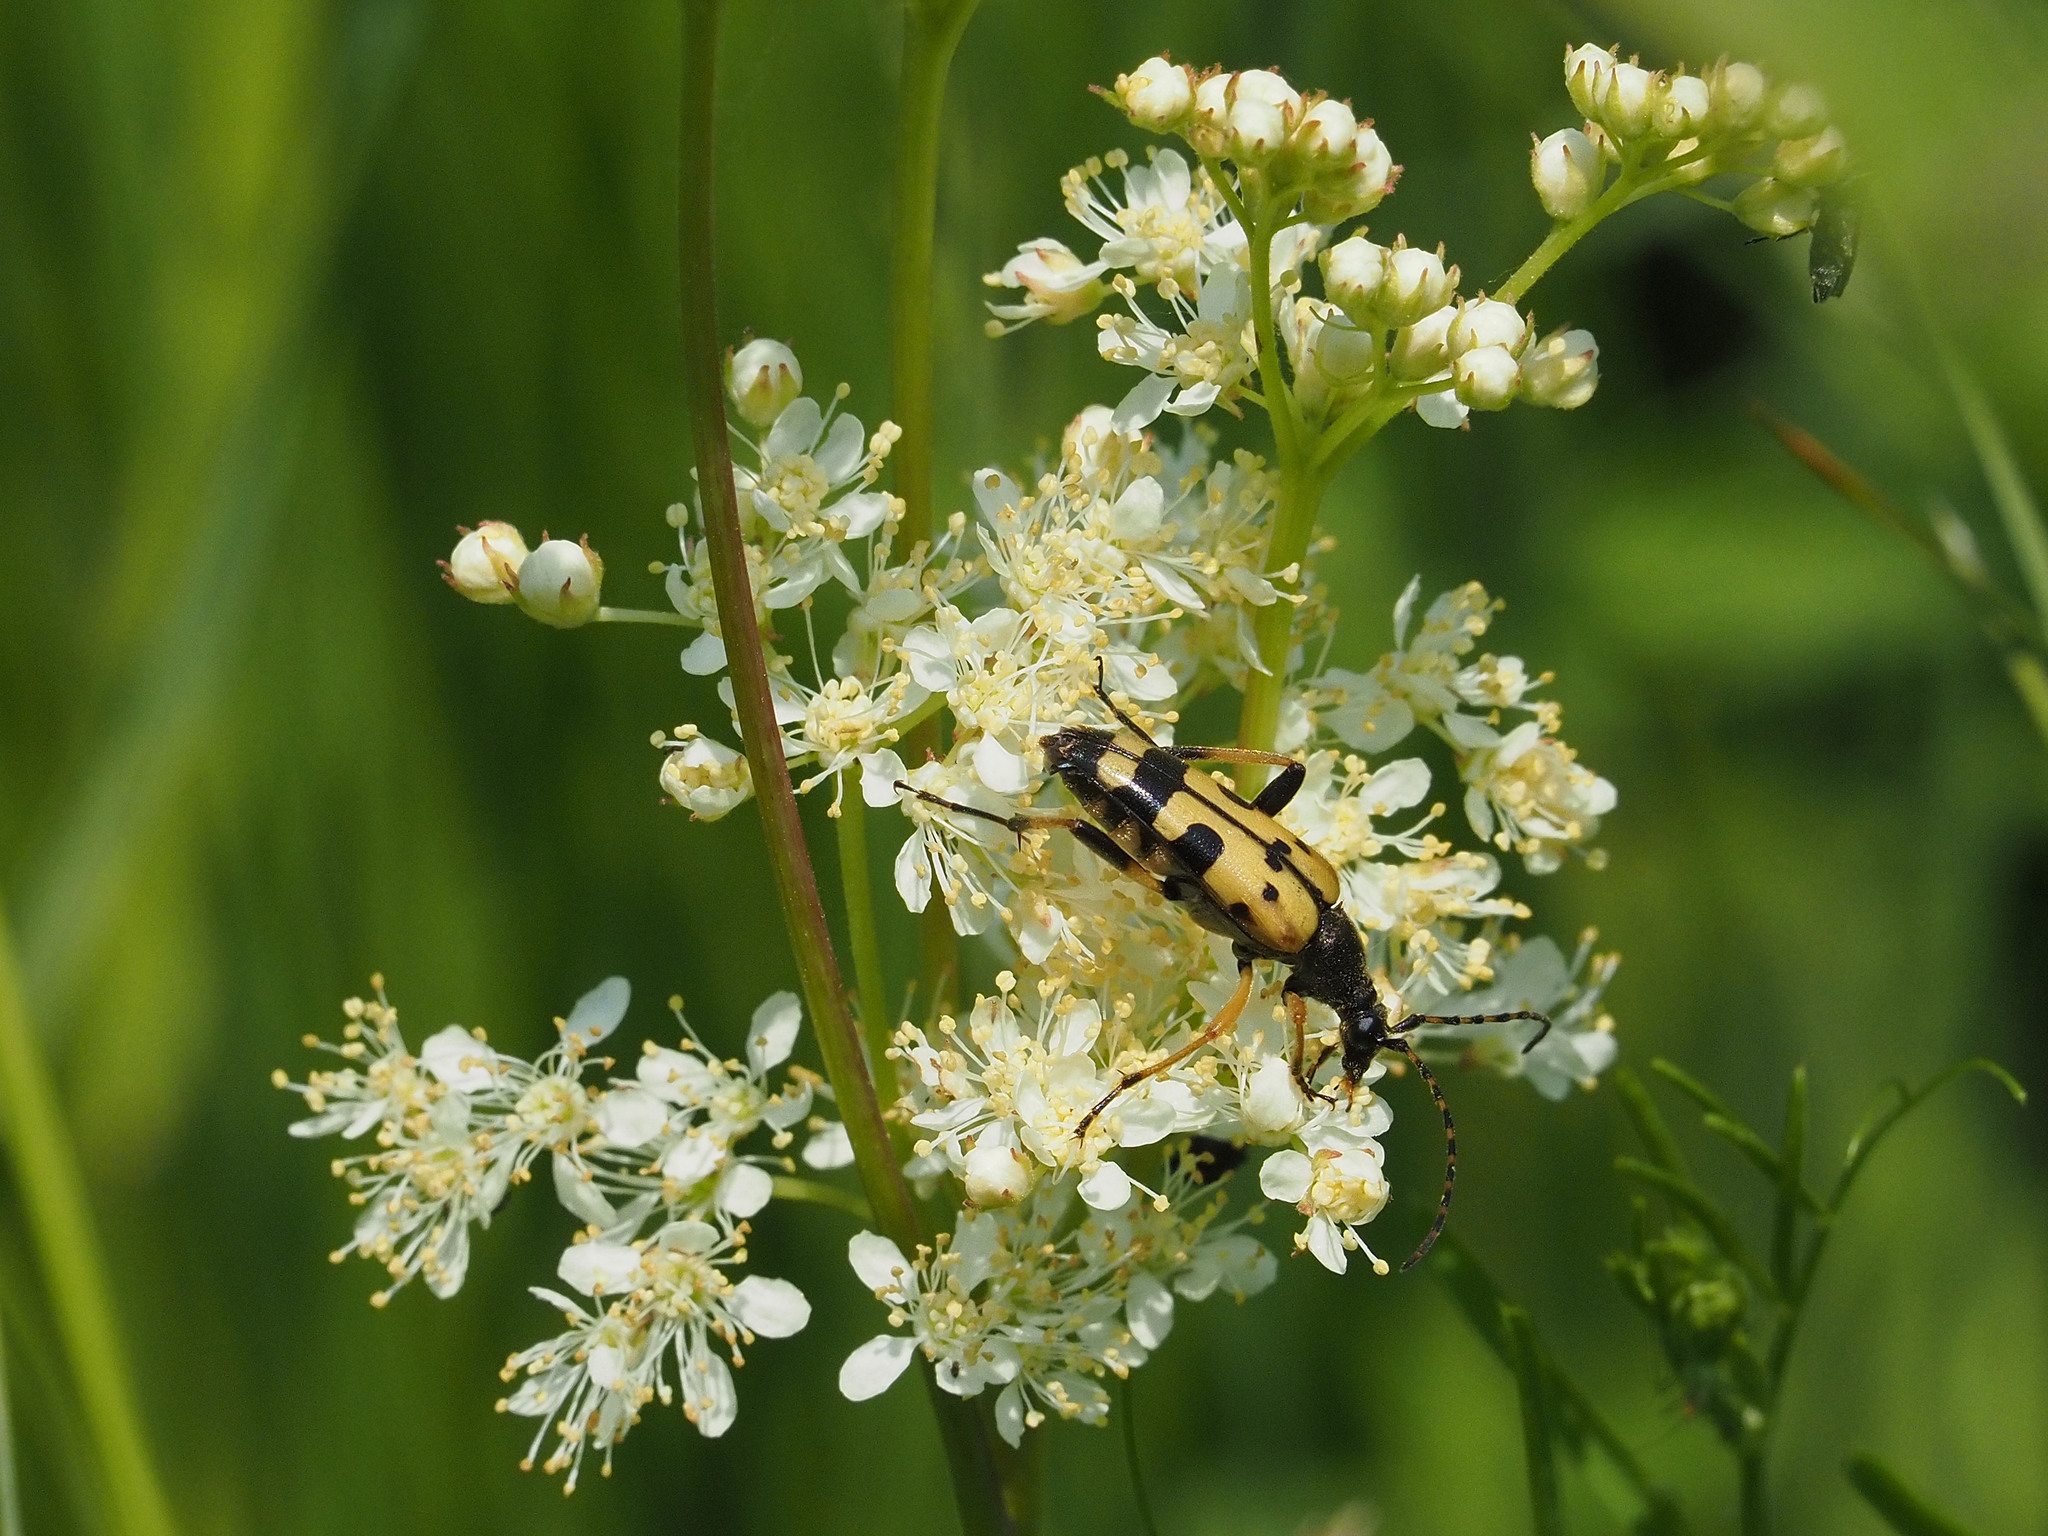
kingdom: Animalia
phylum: Arthropoda
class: Insecta
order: Coleoptera
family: Cerambycidae
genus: Rutpela
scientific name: Rutpela maculata
